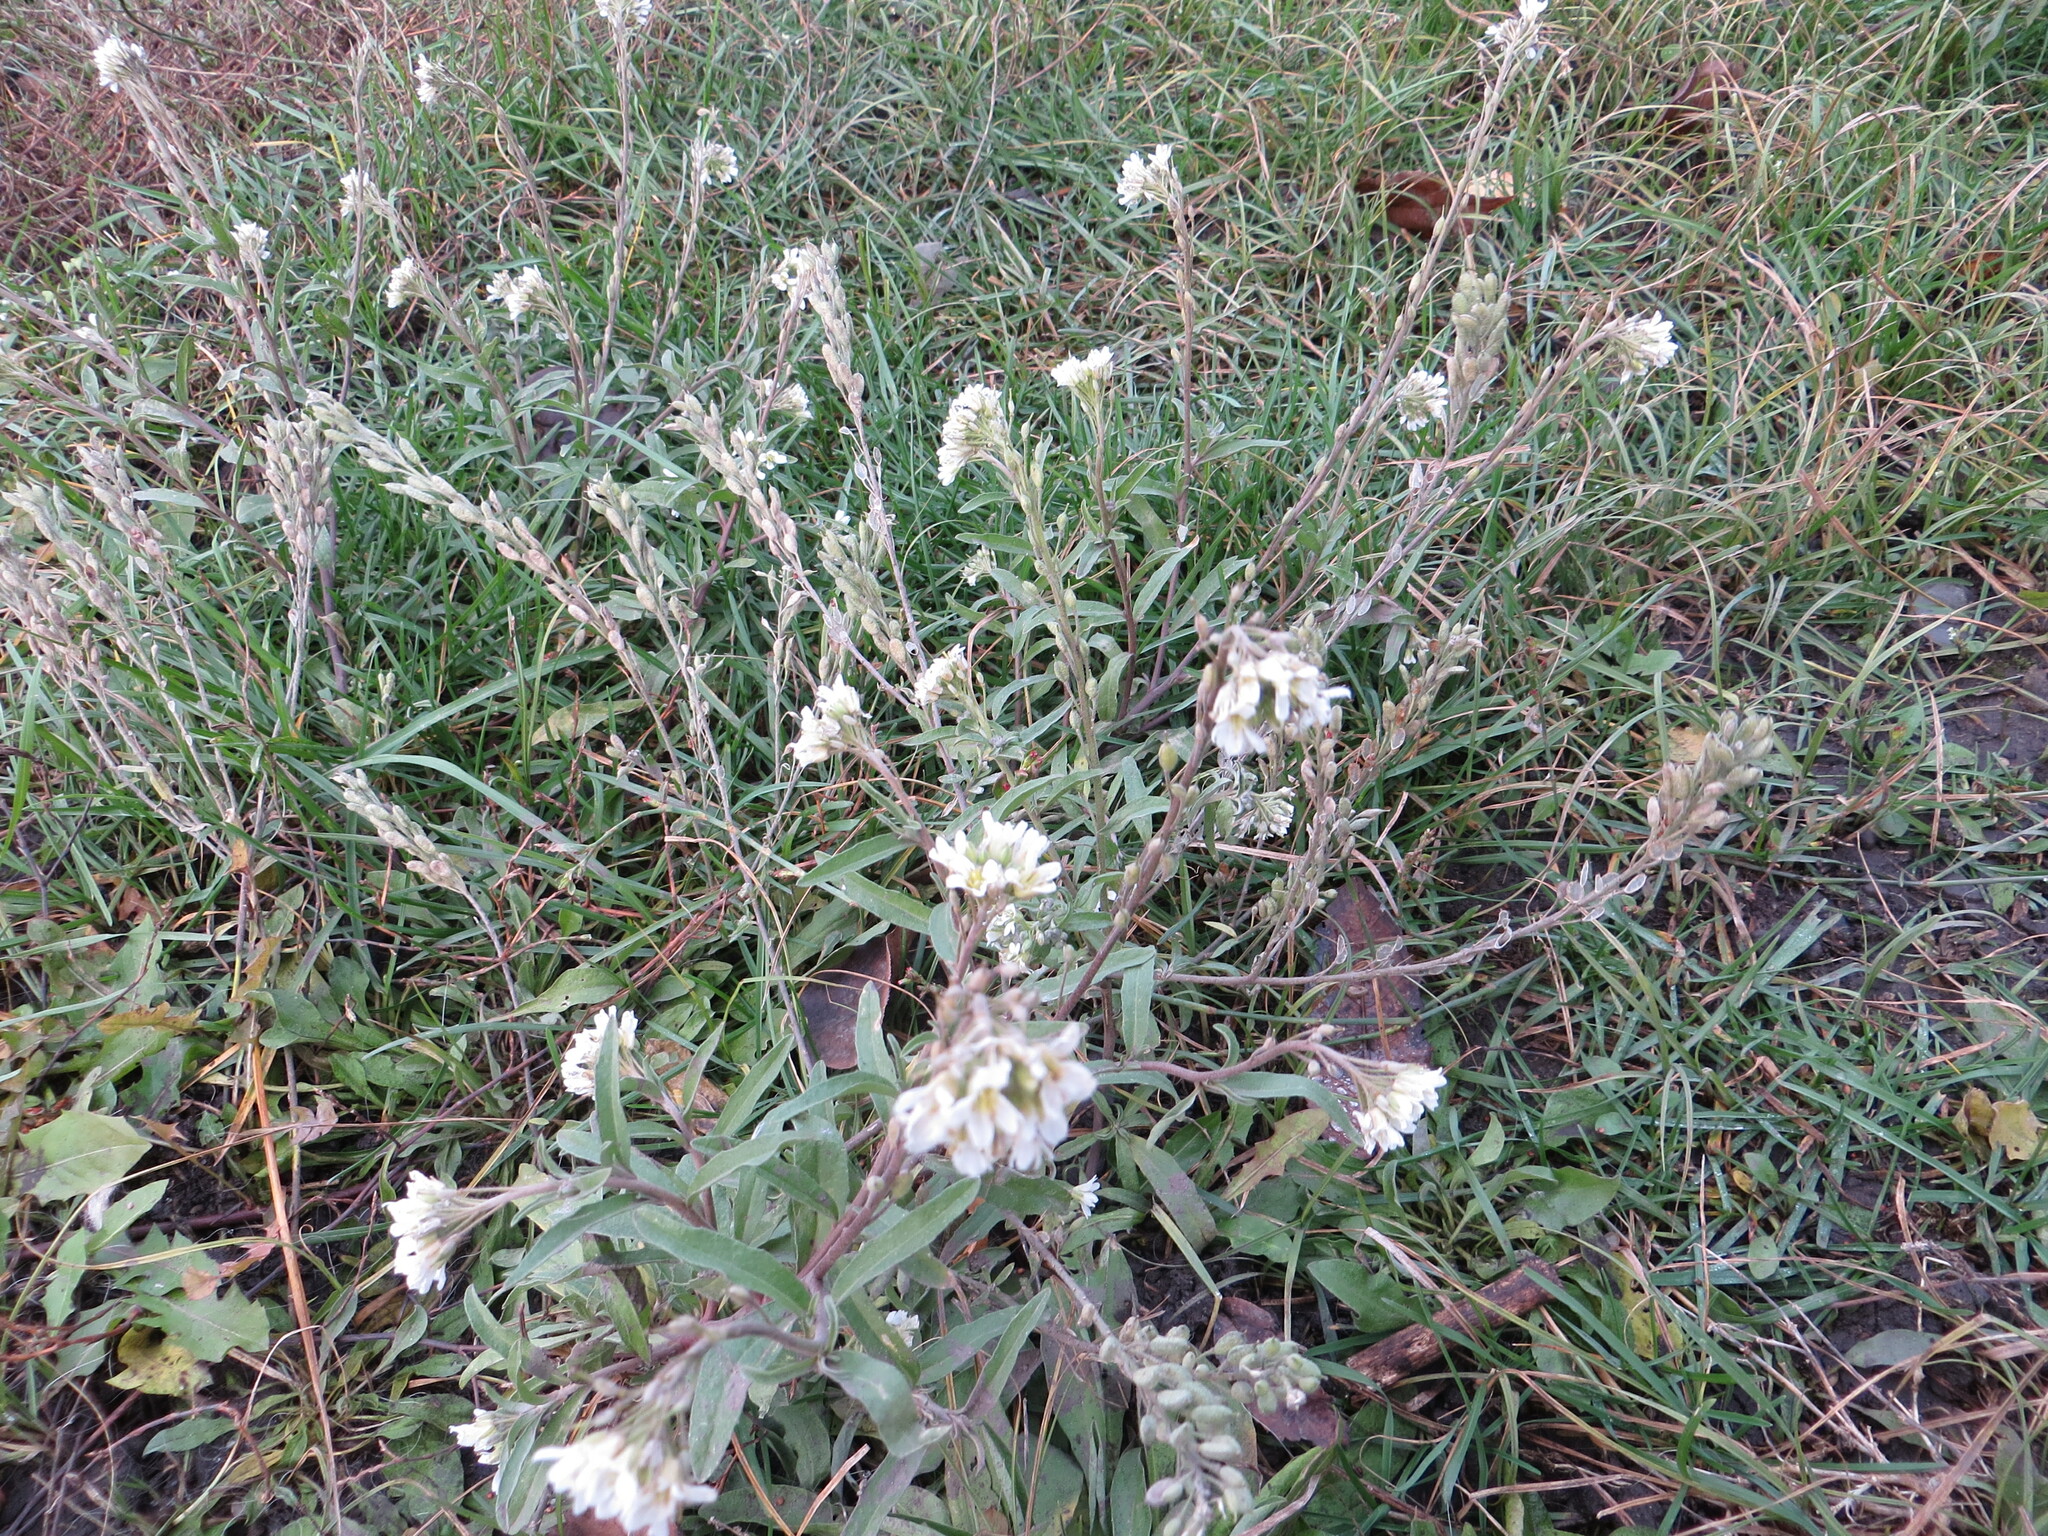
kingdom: Plantae
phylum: Tracheophyta
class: Magnoliopsida
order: Brassicales
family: Brassicaceae
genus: Berteroa
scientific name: Berteroa incana
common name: Hoary alison
